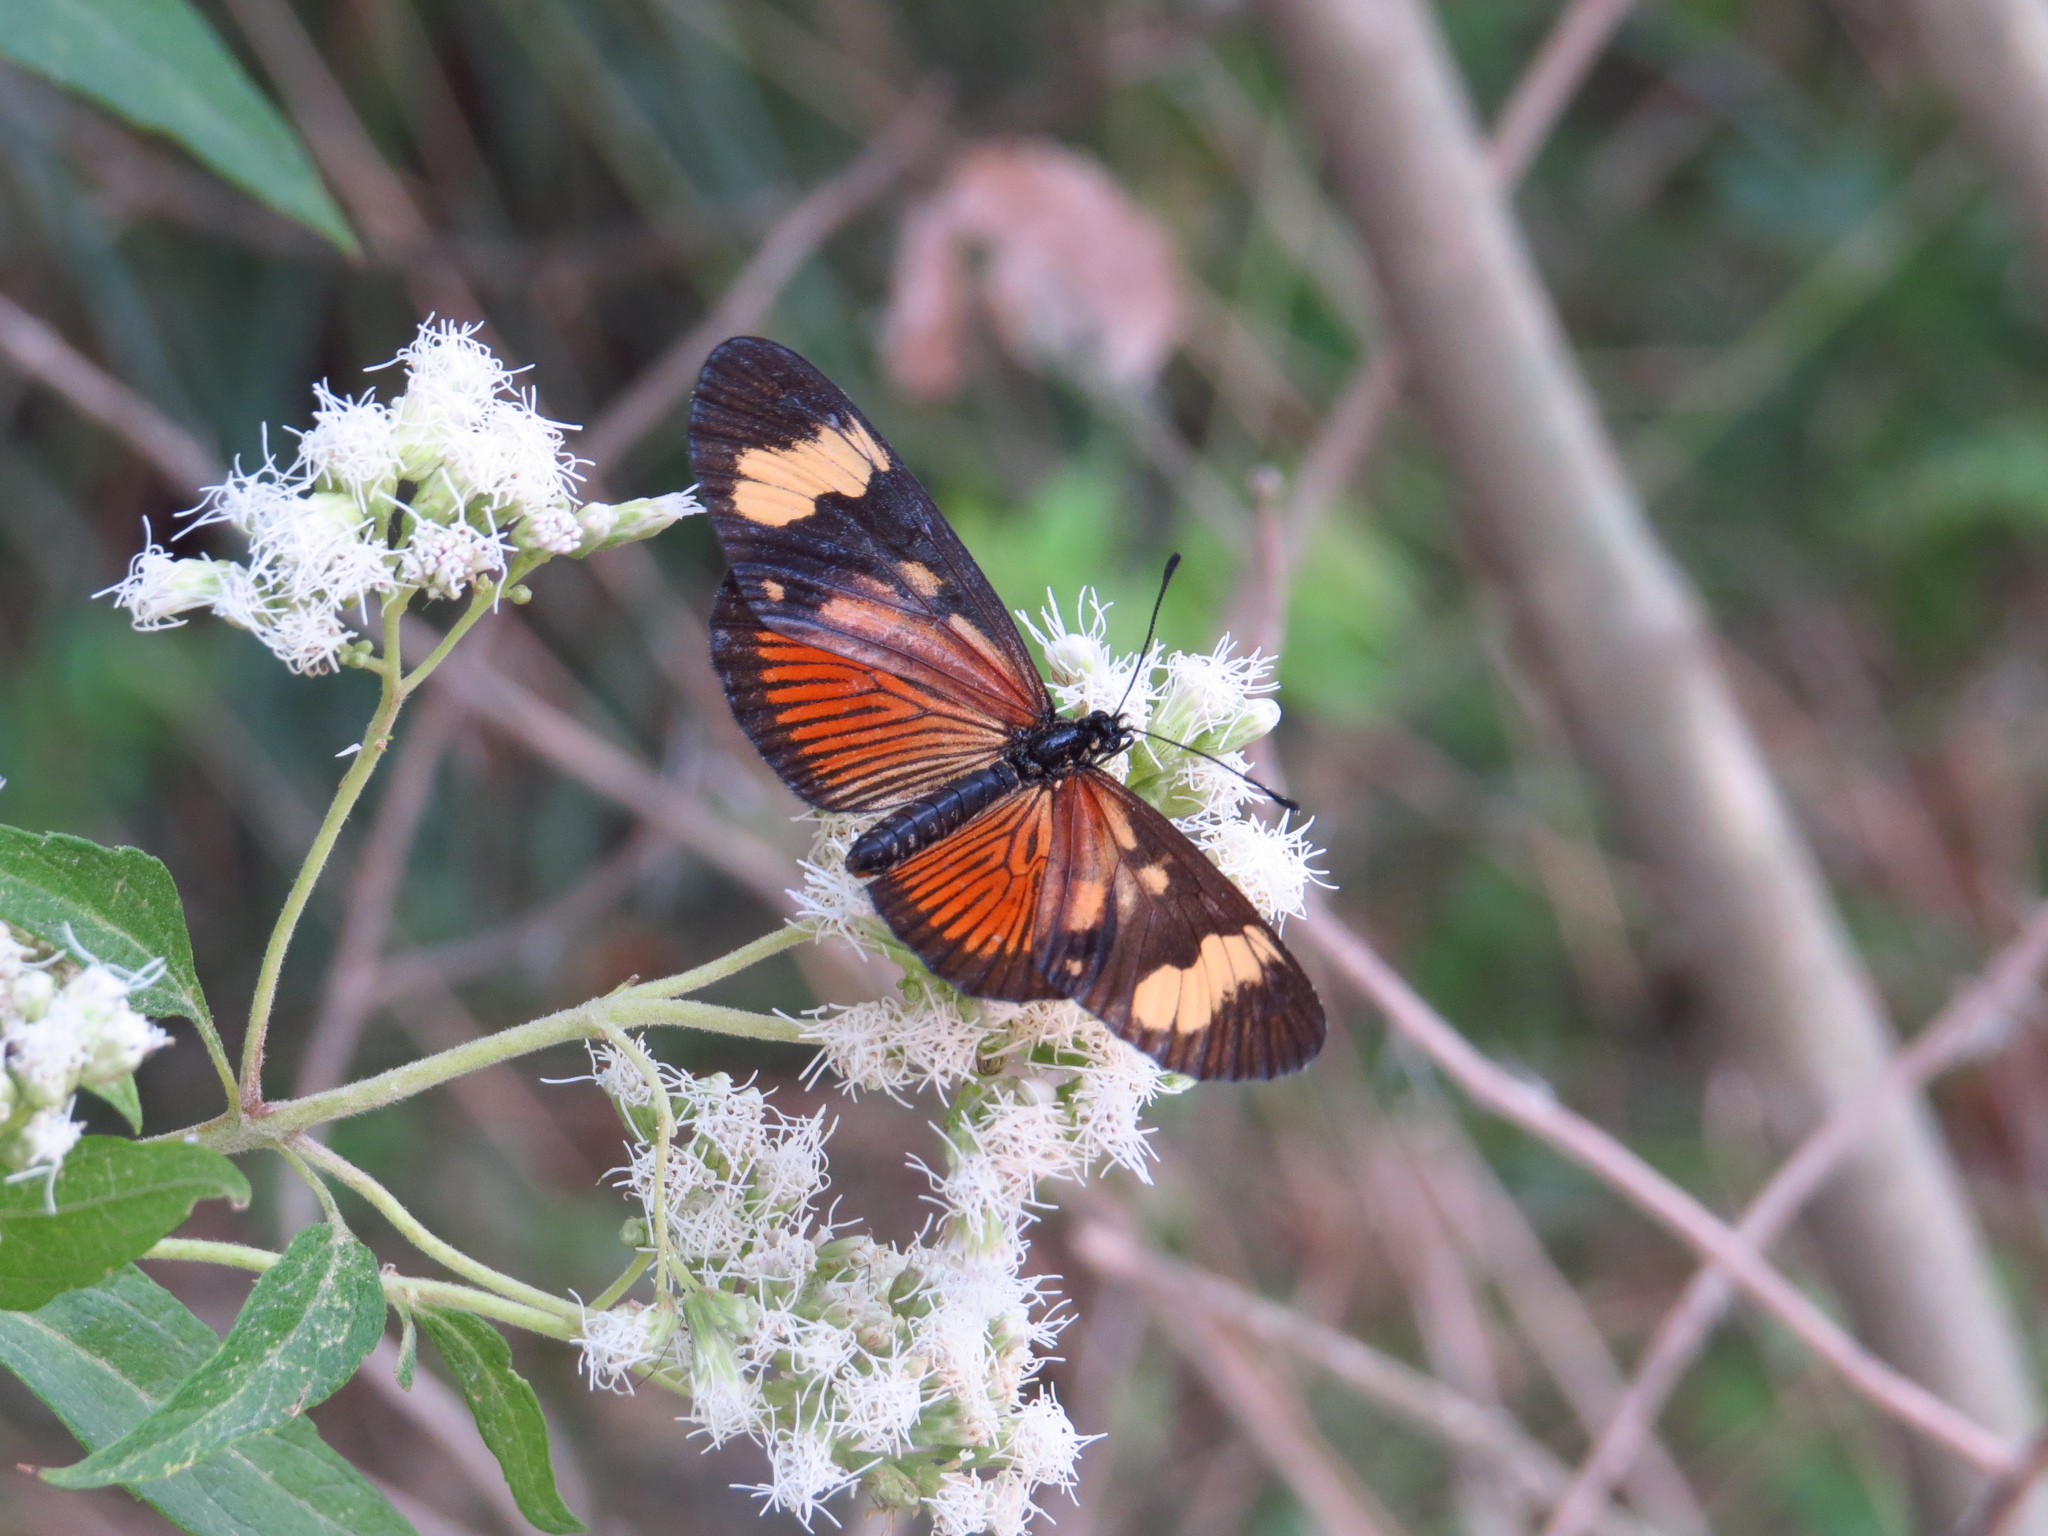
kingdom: Animalia
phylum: Arthropoda
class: Insecta
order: Lepidoptera
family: Nymphalidae
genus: Actinote
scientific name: Actinote pellenea
